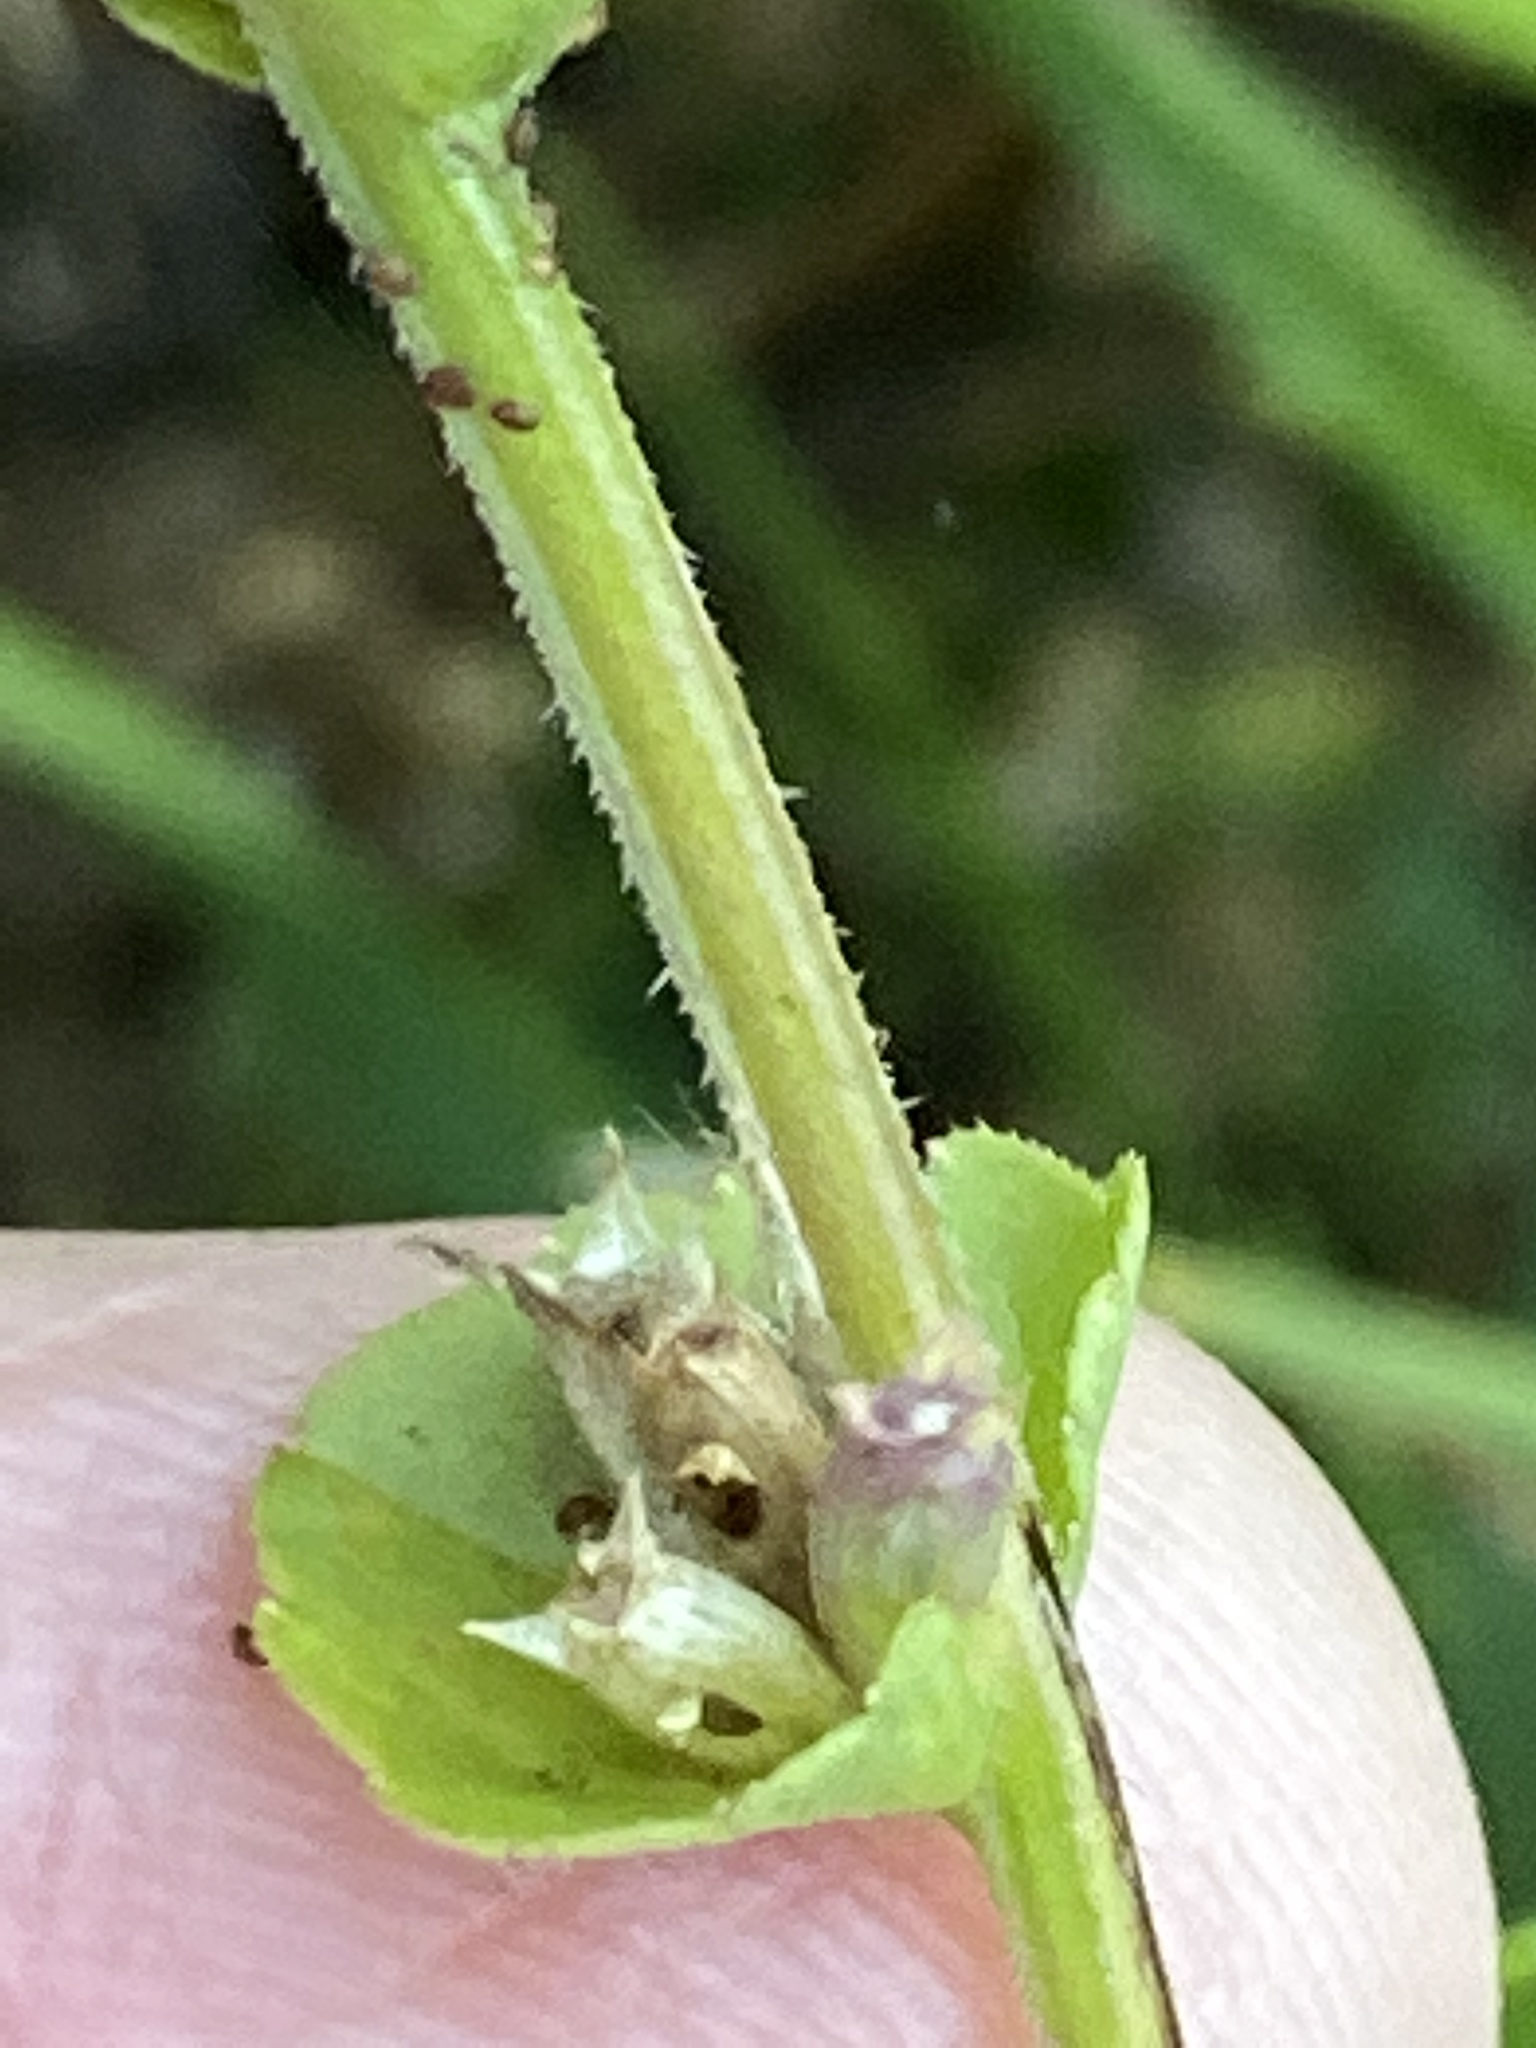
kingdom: Plantae
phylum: Tracheophyta
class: Magnoliopsida
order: Asterales
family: Campanulaceae
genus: Triodanis
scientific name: Triodanis perfoliata
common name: Clasping venus' looking-glass
